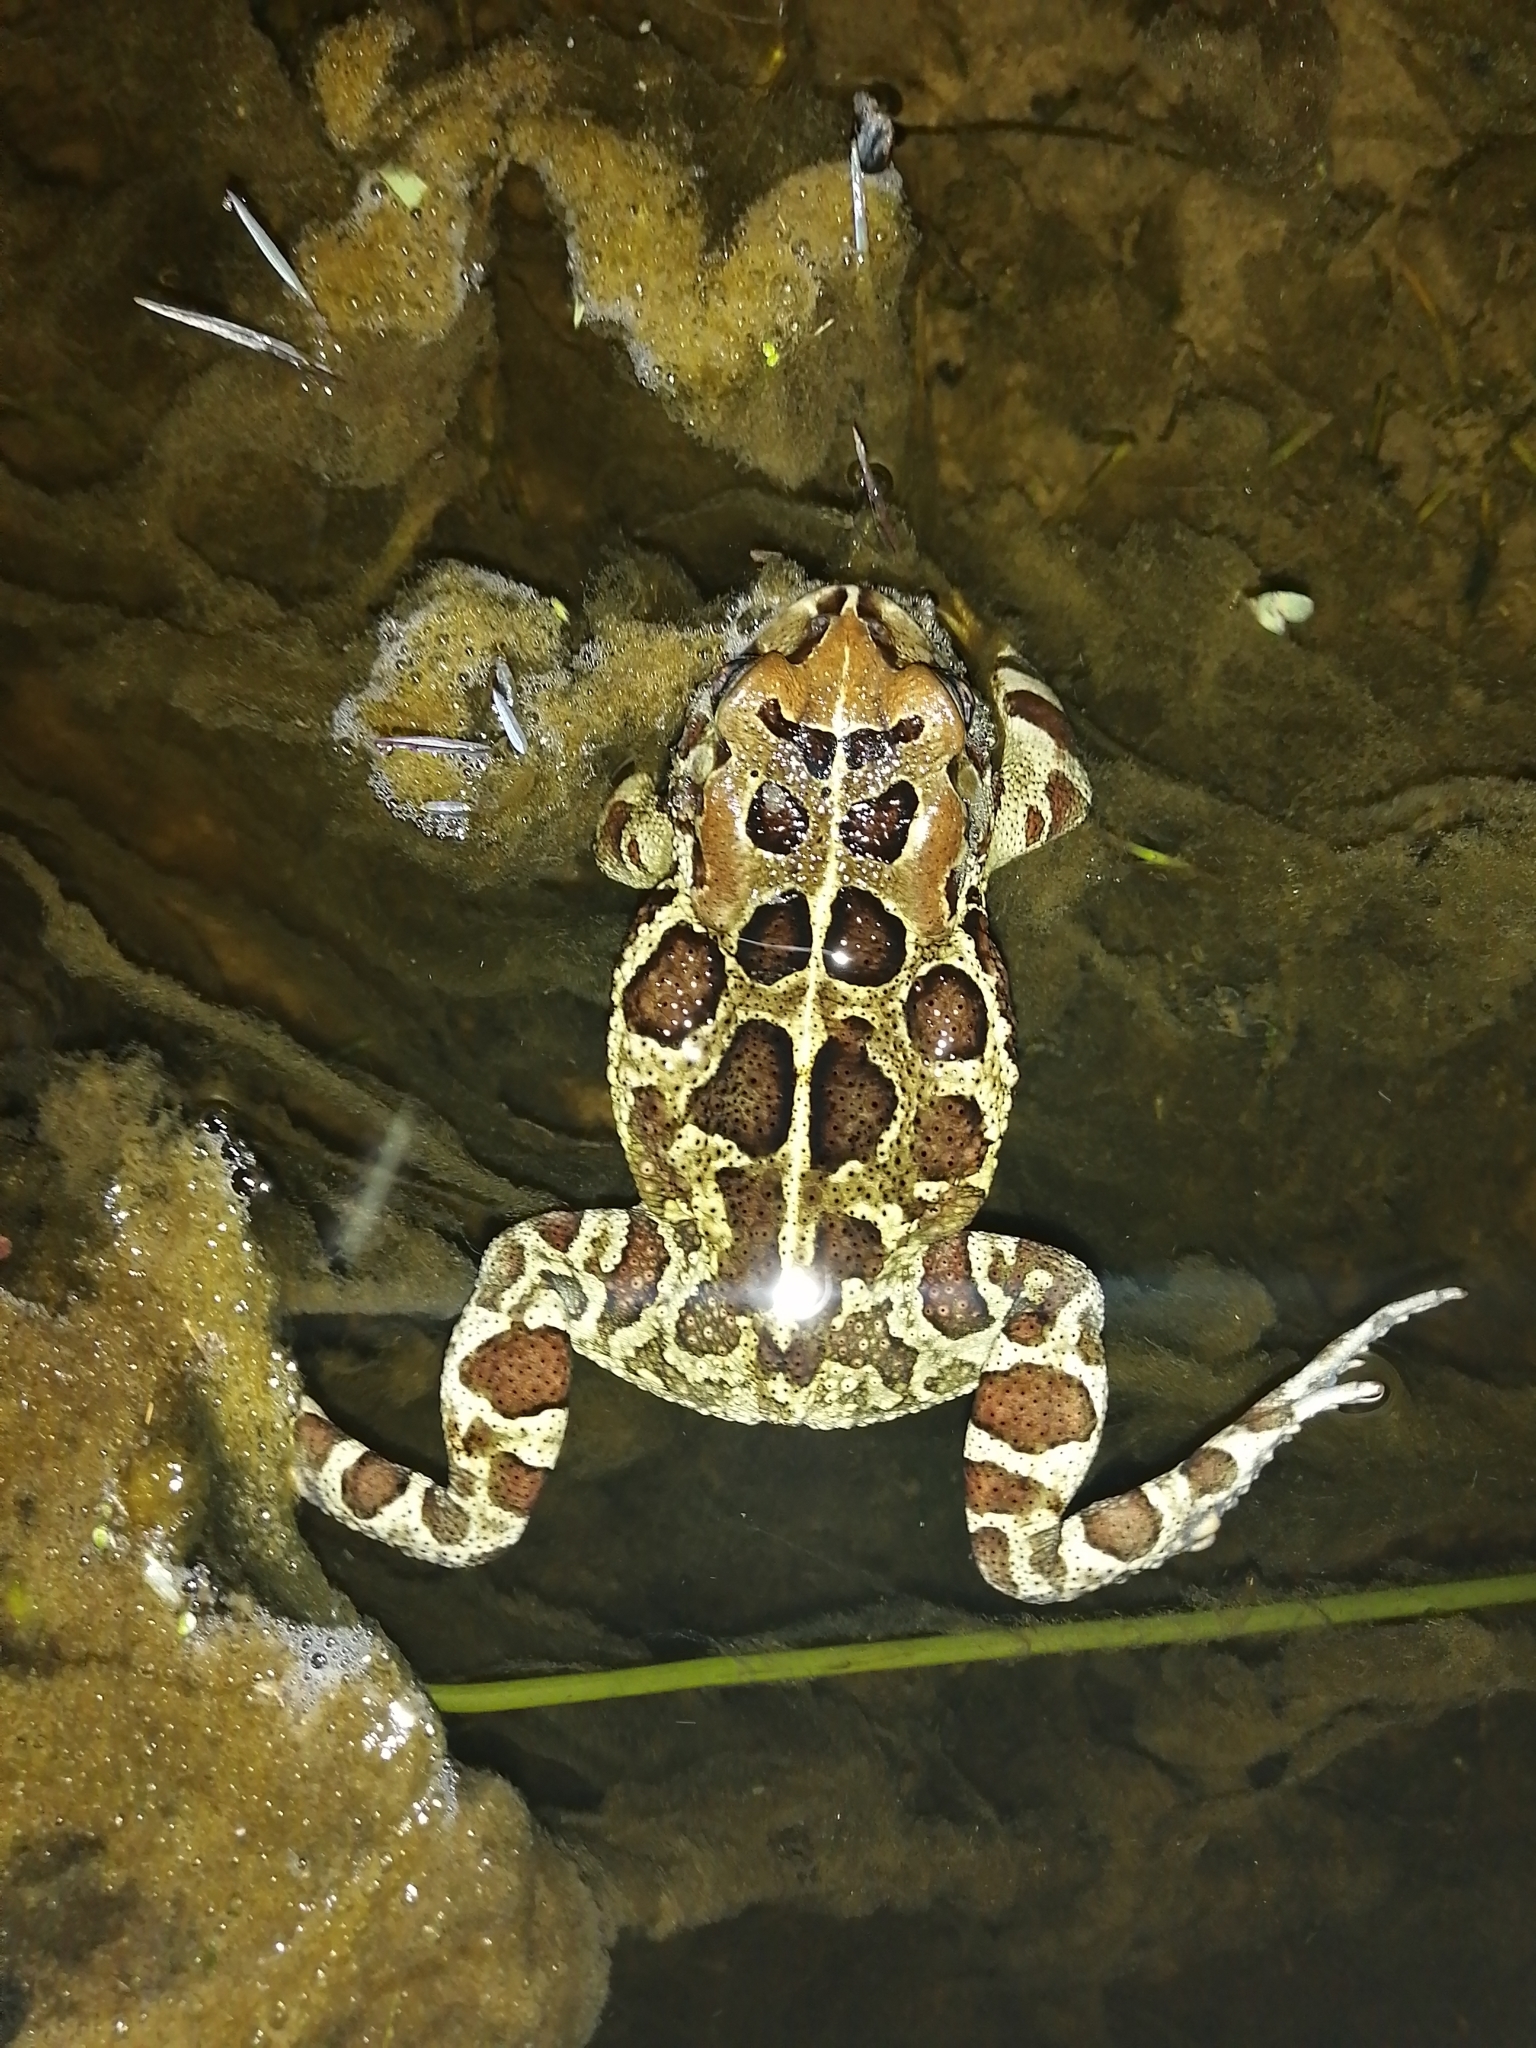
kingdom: Animalia
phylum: Chordata
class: Amphibia
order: Anura
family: Bufonidae
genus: Sclerophrys
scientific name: Sclerophrys pantherina
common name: Panther toad
